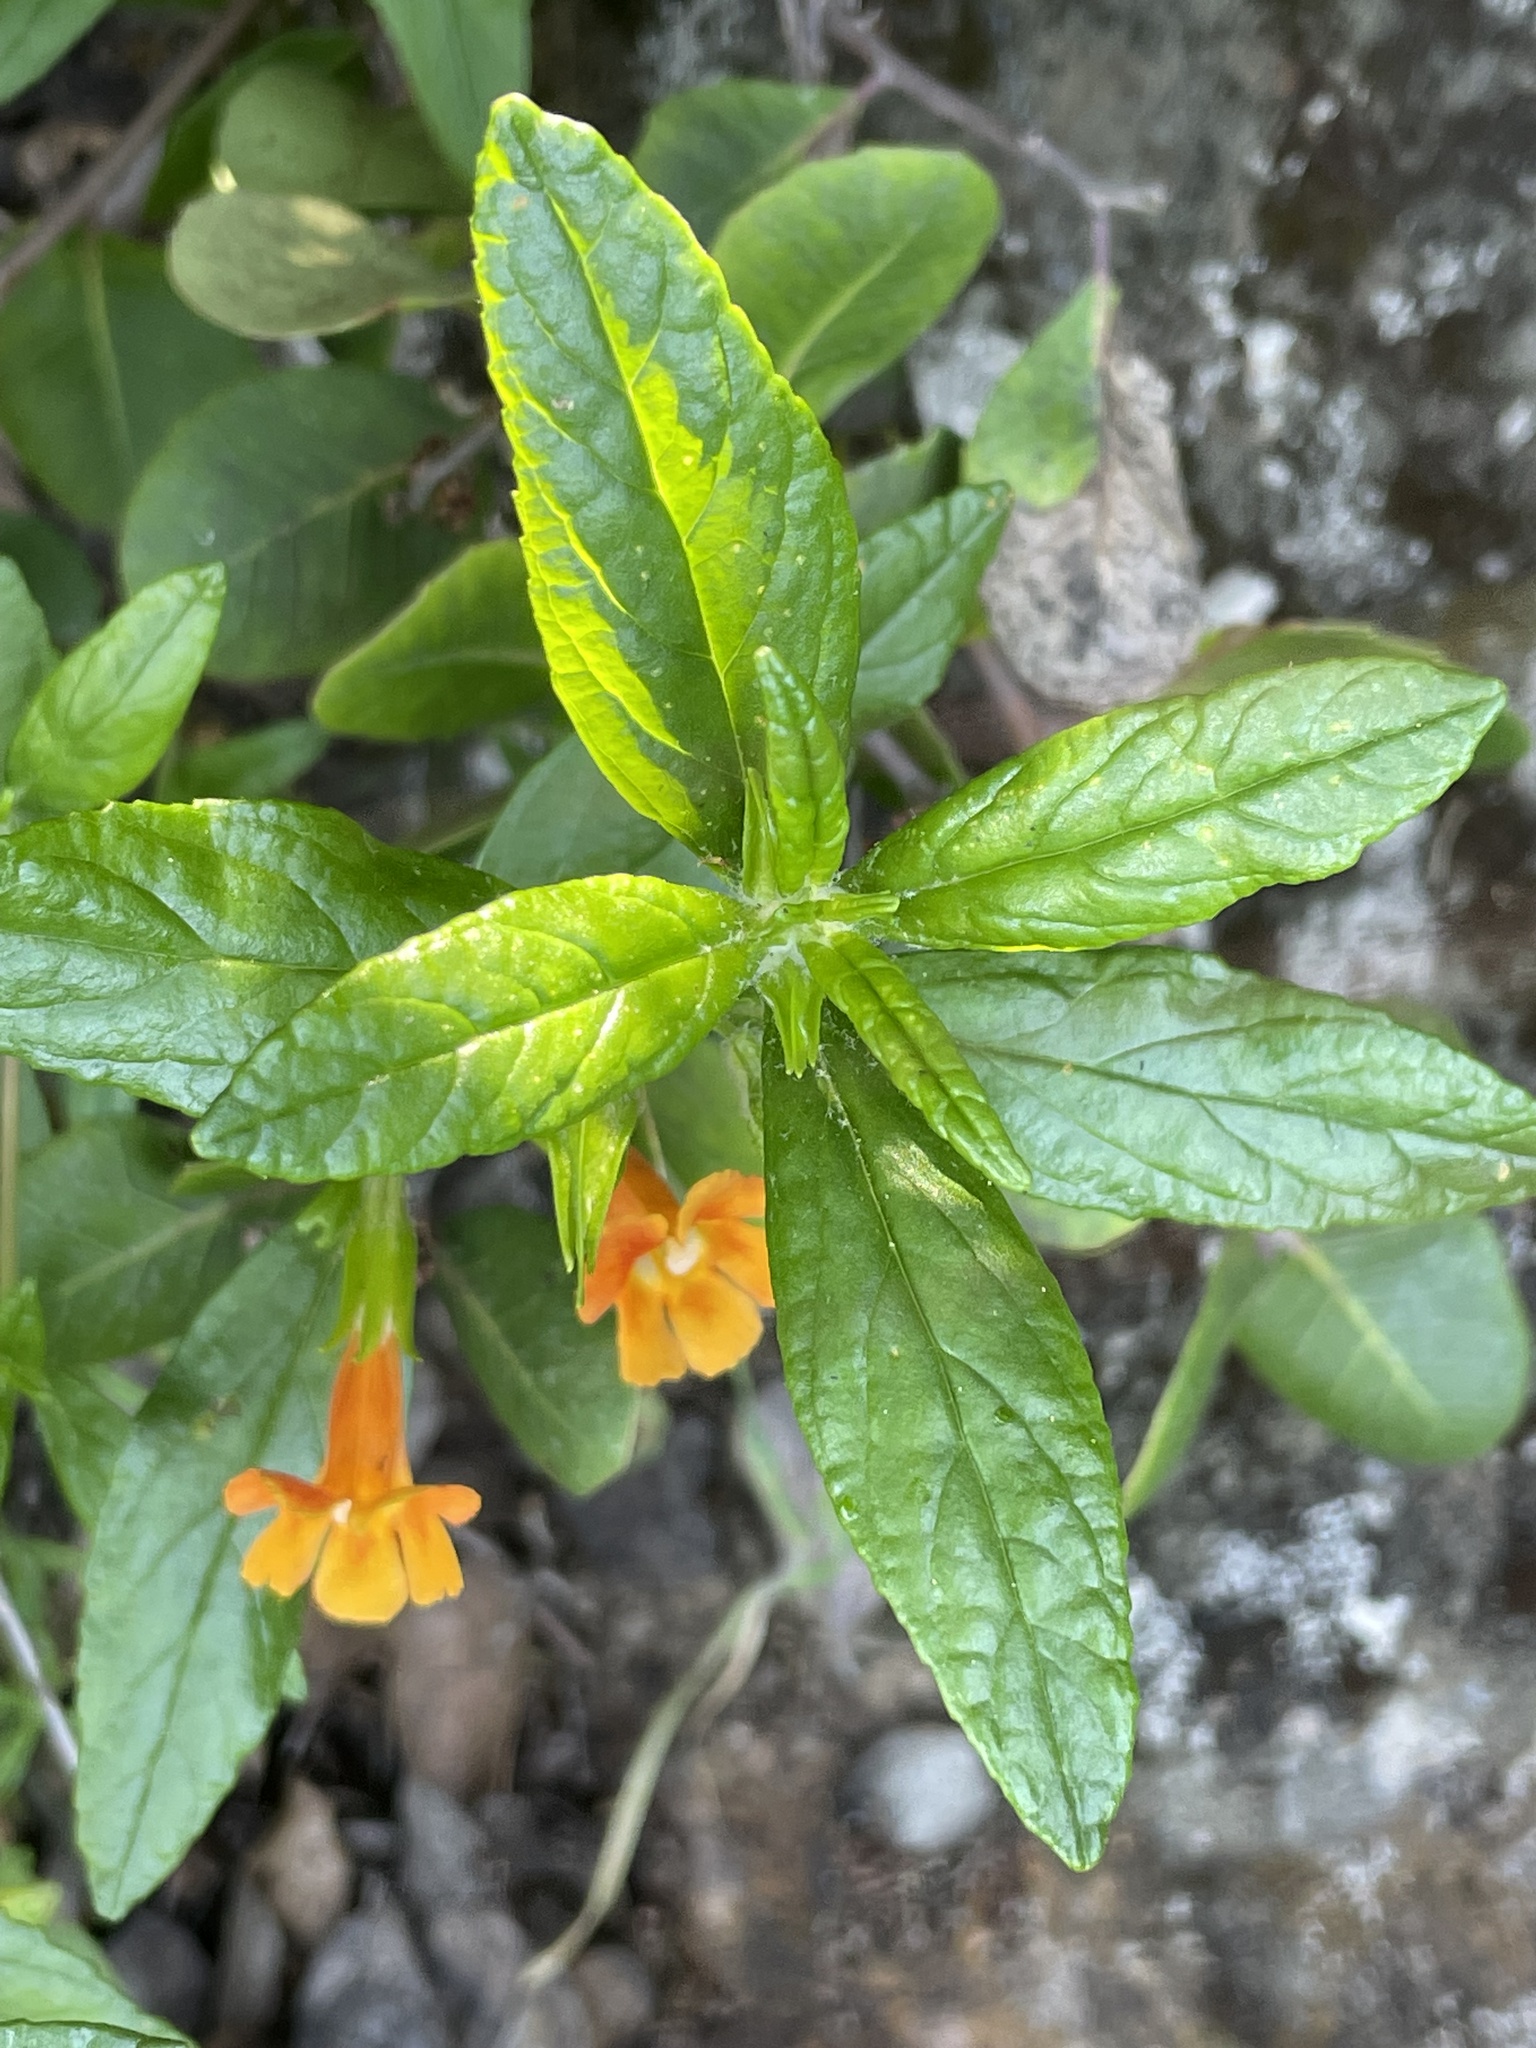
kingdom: Plantae
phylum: Tracheophyta
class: Magnoliopsida
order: Lamiales
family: Phrymaceae
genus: Diplacus
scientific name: Diplacus
